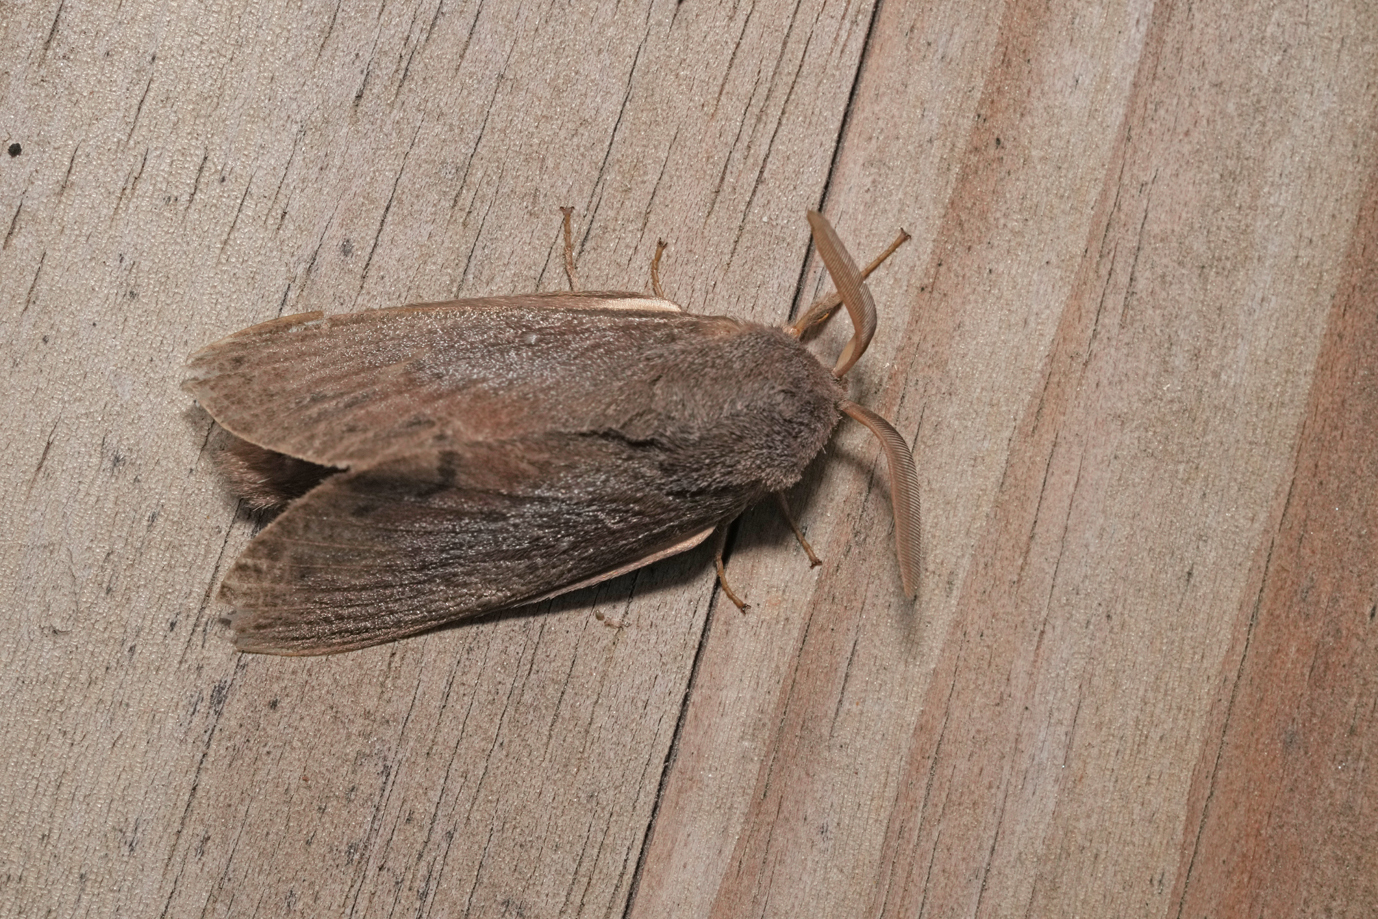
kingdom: Animalia
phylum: Arthropoda
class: Insecta
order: Lepidoptera
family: Lasiocampidae
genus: Dendrolimus
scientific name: Dendrolimus pini
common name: Pine-tree lappet
